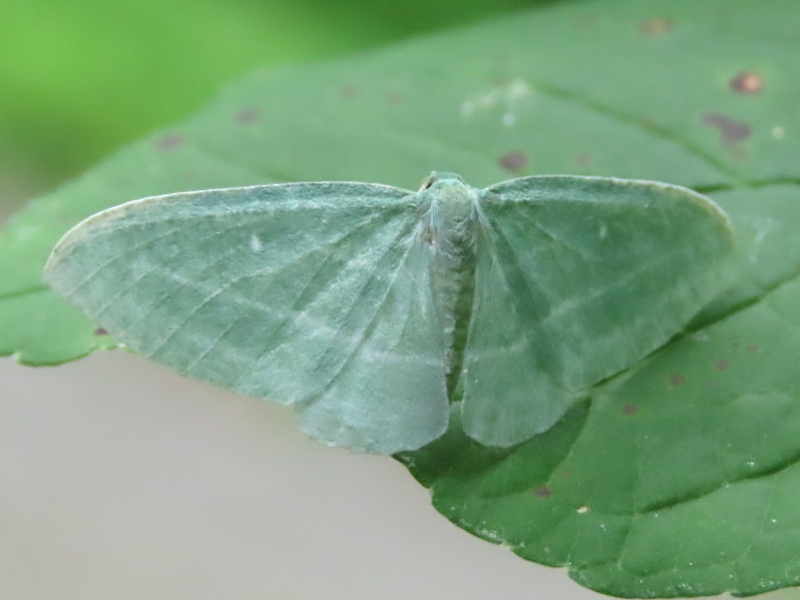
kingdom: Animalia
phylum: Arthropoda
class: Insecta
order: Lepidoptera
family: Geometridae
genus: Dyspteris
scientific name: Dyspteris abortivaria
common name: Bad-wing
